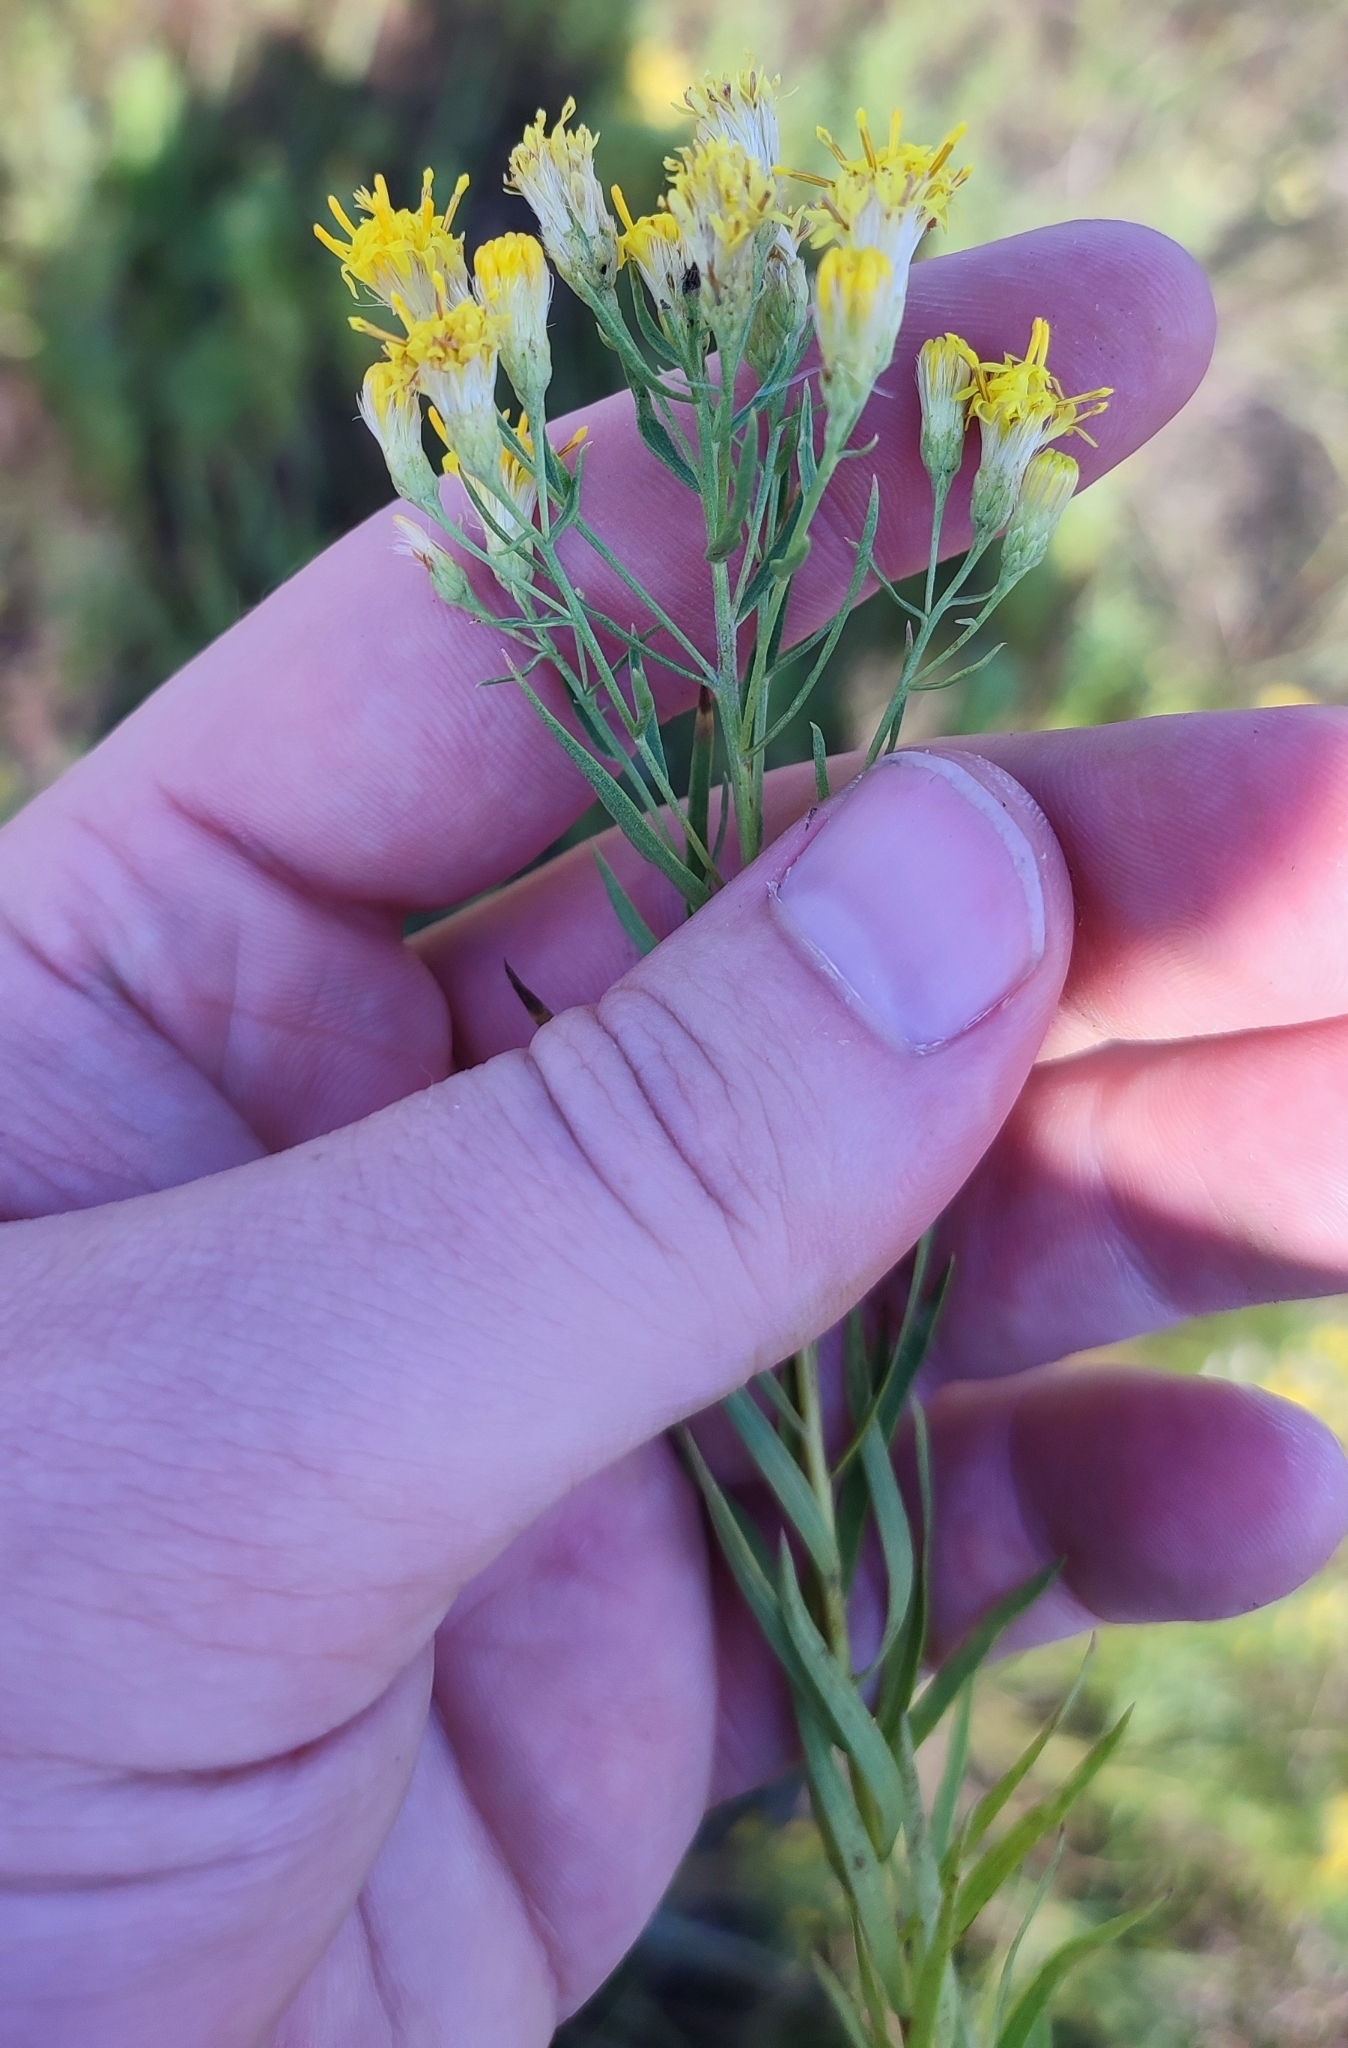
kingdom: Plantae
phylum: Tracheophyta
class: Magnoliopsida
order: Asterales
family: Asteraceae
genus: Galatella
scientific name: Galatella biflora
